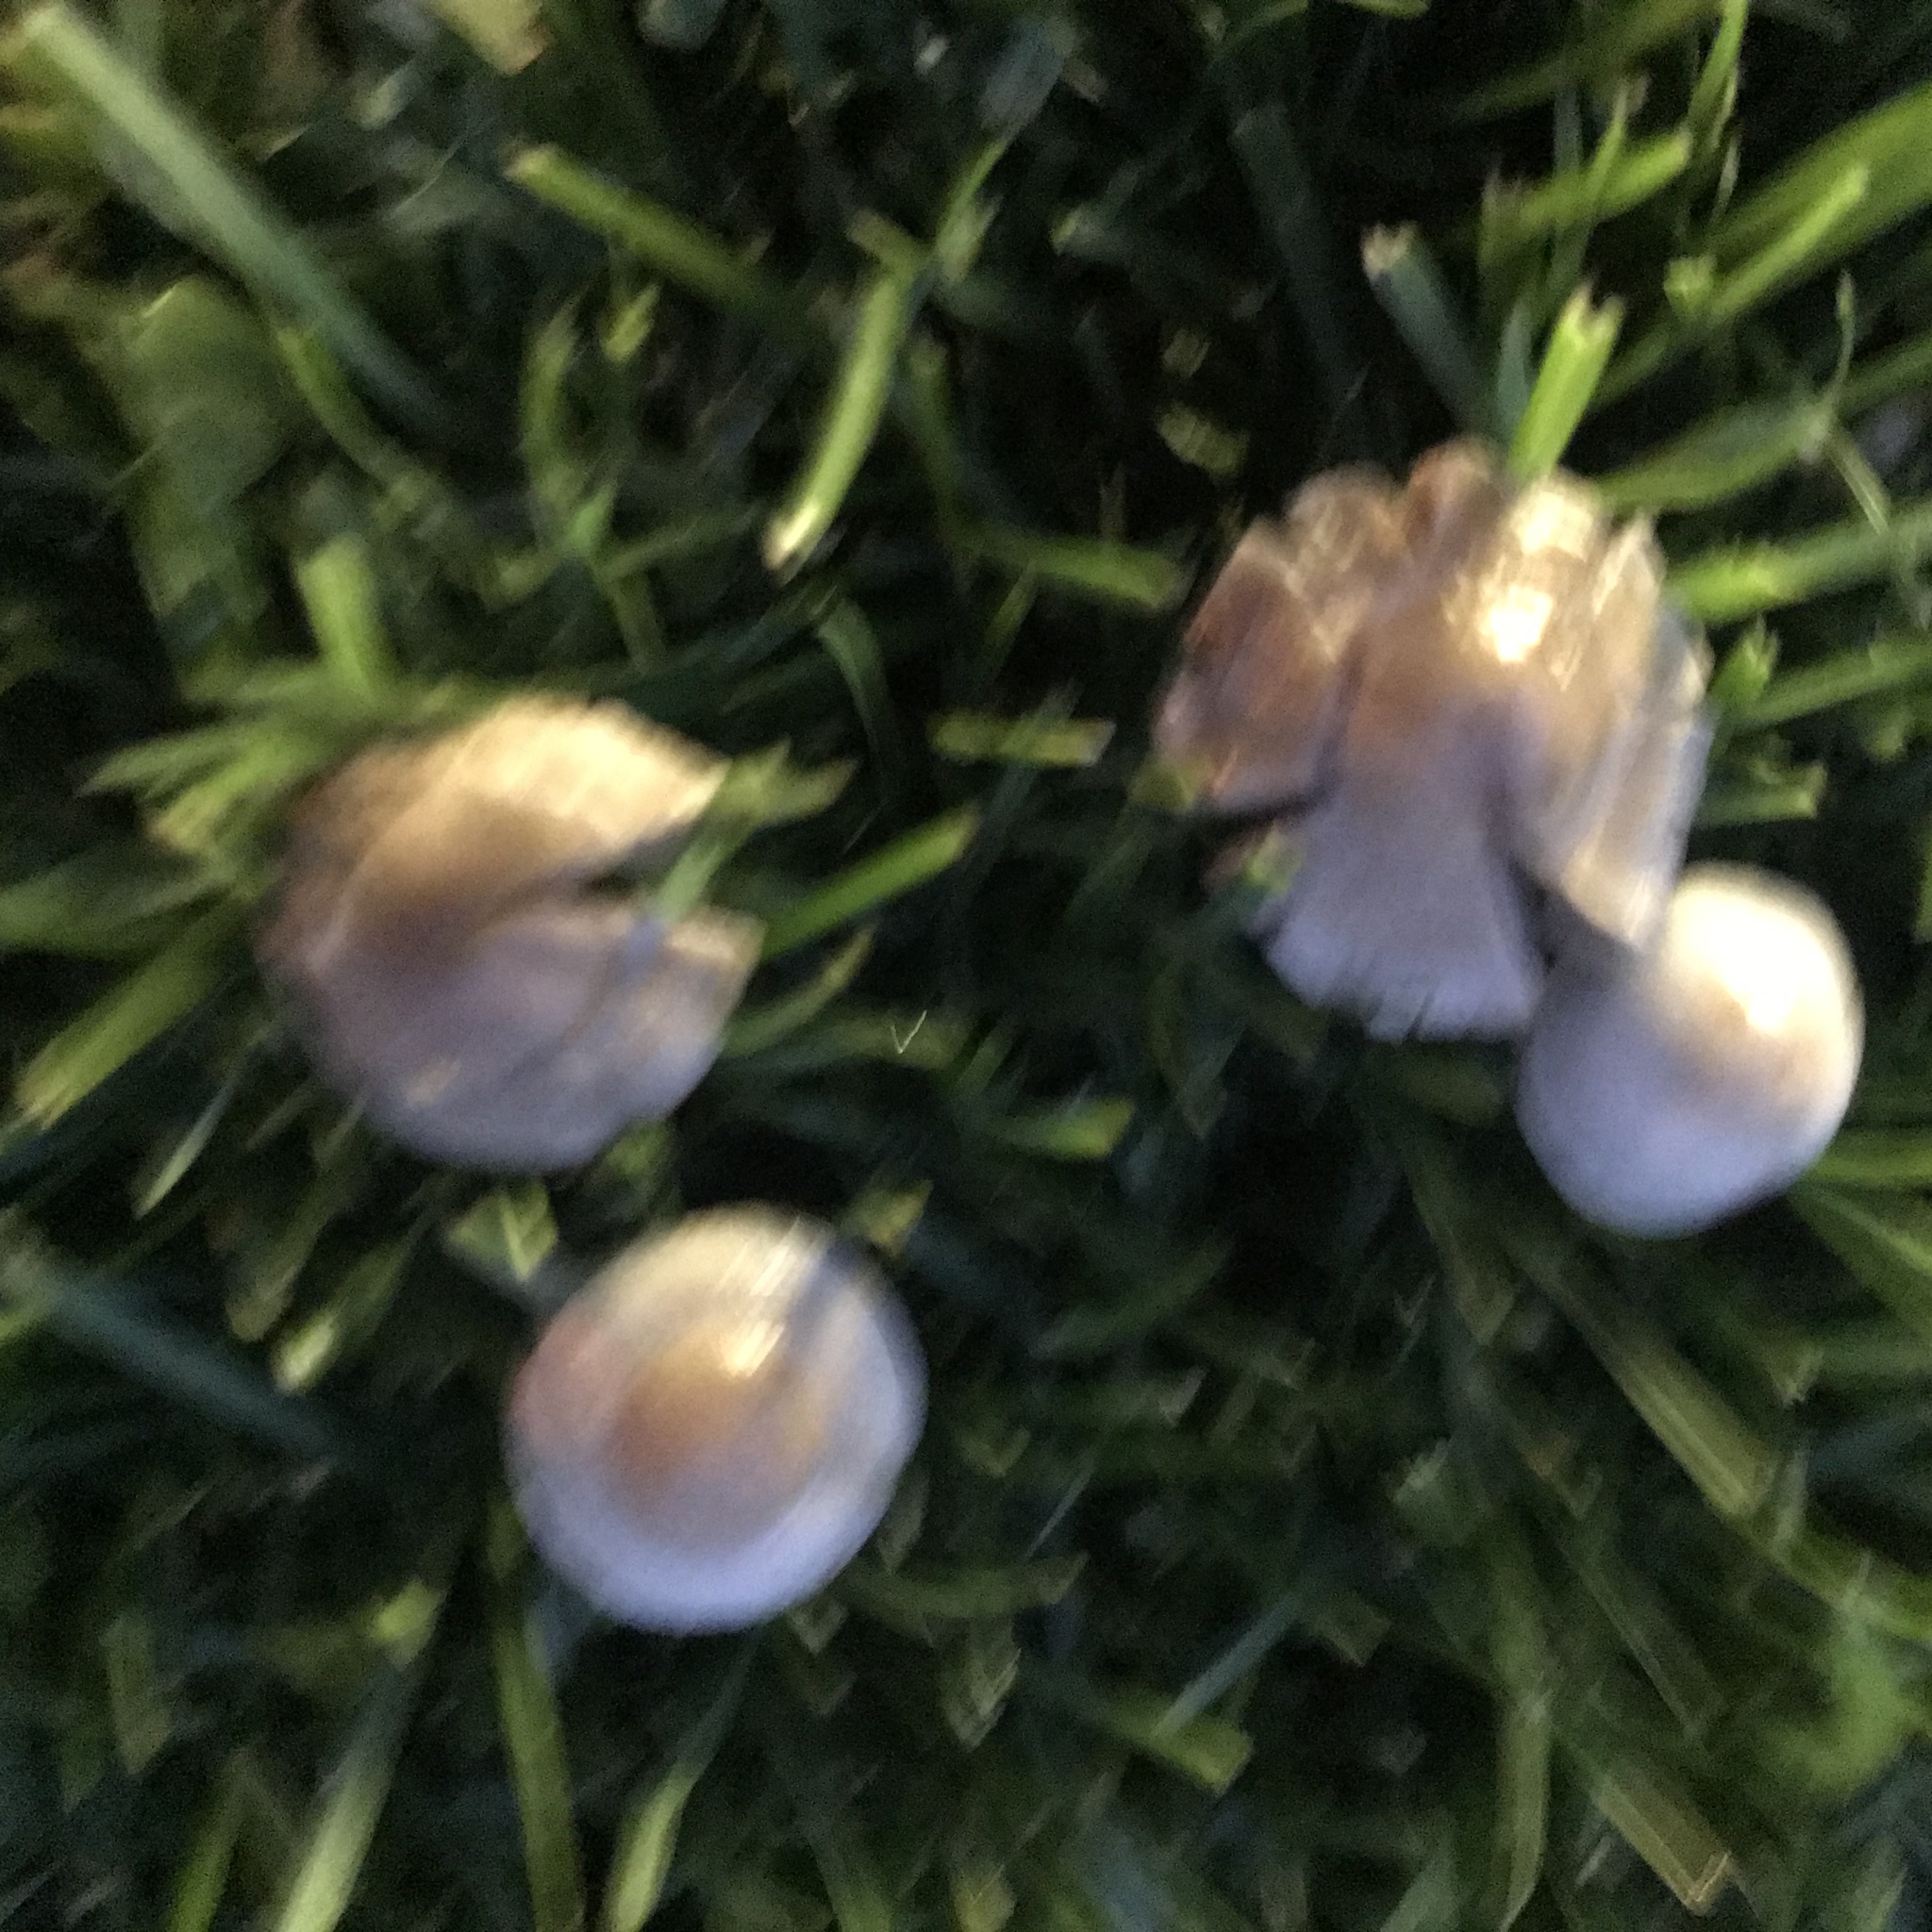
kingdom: Fungi
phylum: Basidiomycota
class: Agaricomycetes
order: Agaricales
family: Psathyrellaceae
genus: Candolleomyces
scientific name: Candolleomyces candolleanus
